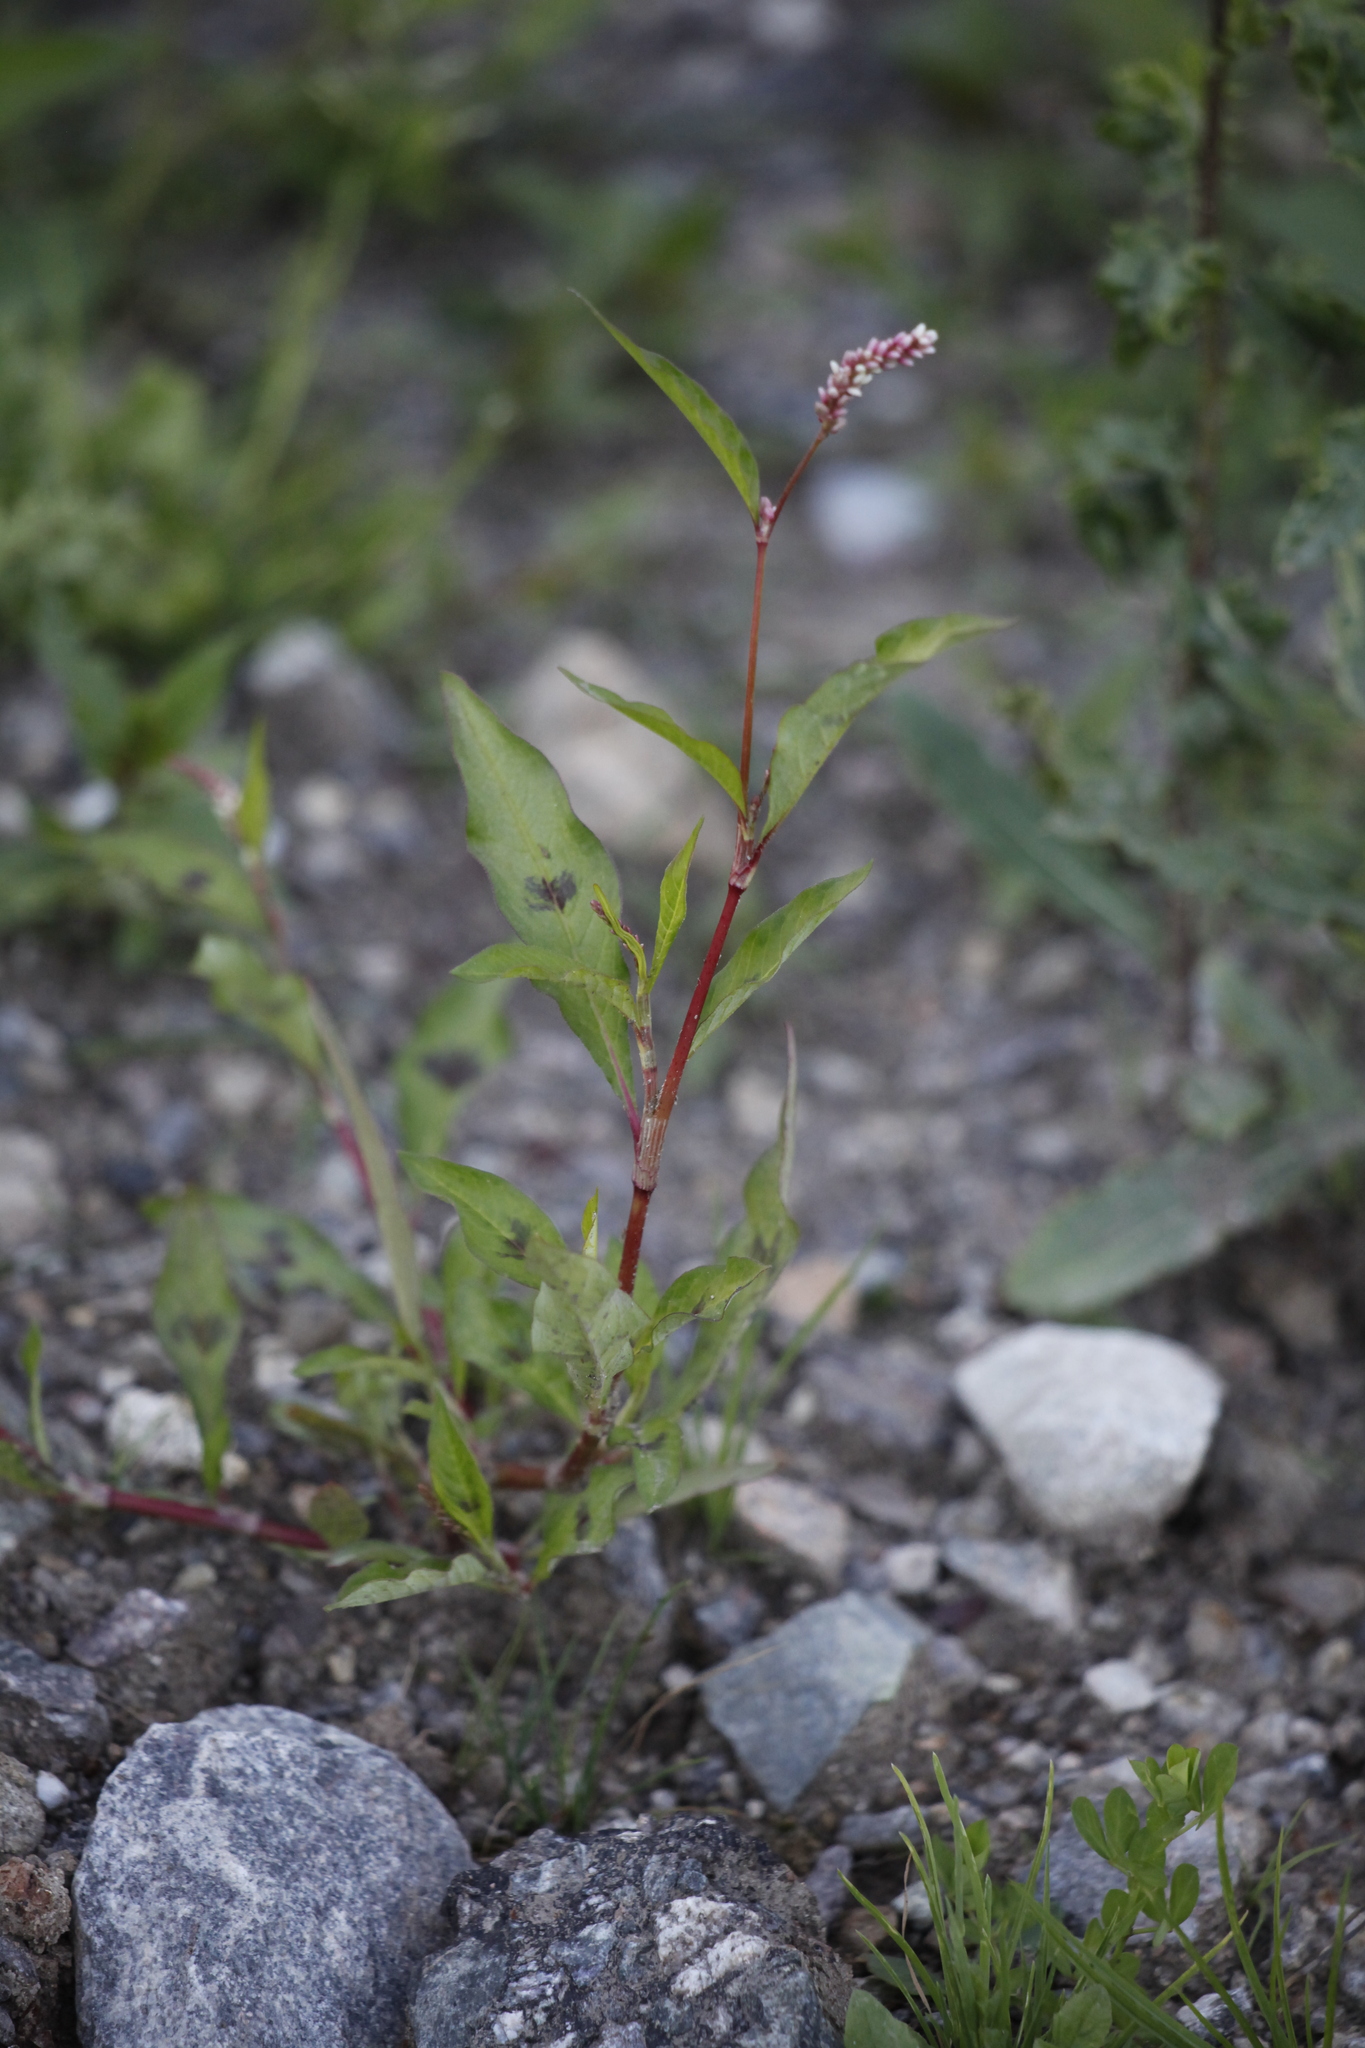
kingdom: Plantae
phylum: Tracheophyta
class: Magnoliopsida
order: Caryophyllales
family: Polygonaceae
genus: Persicaria
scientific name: Persicaria maculosa
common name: Redshank
